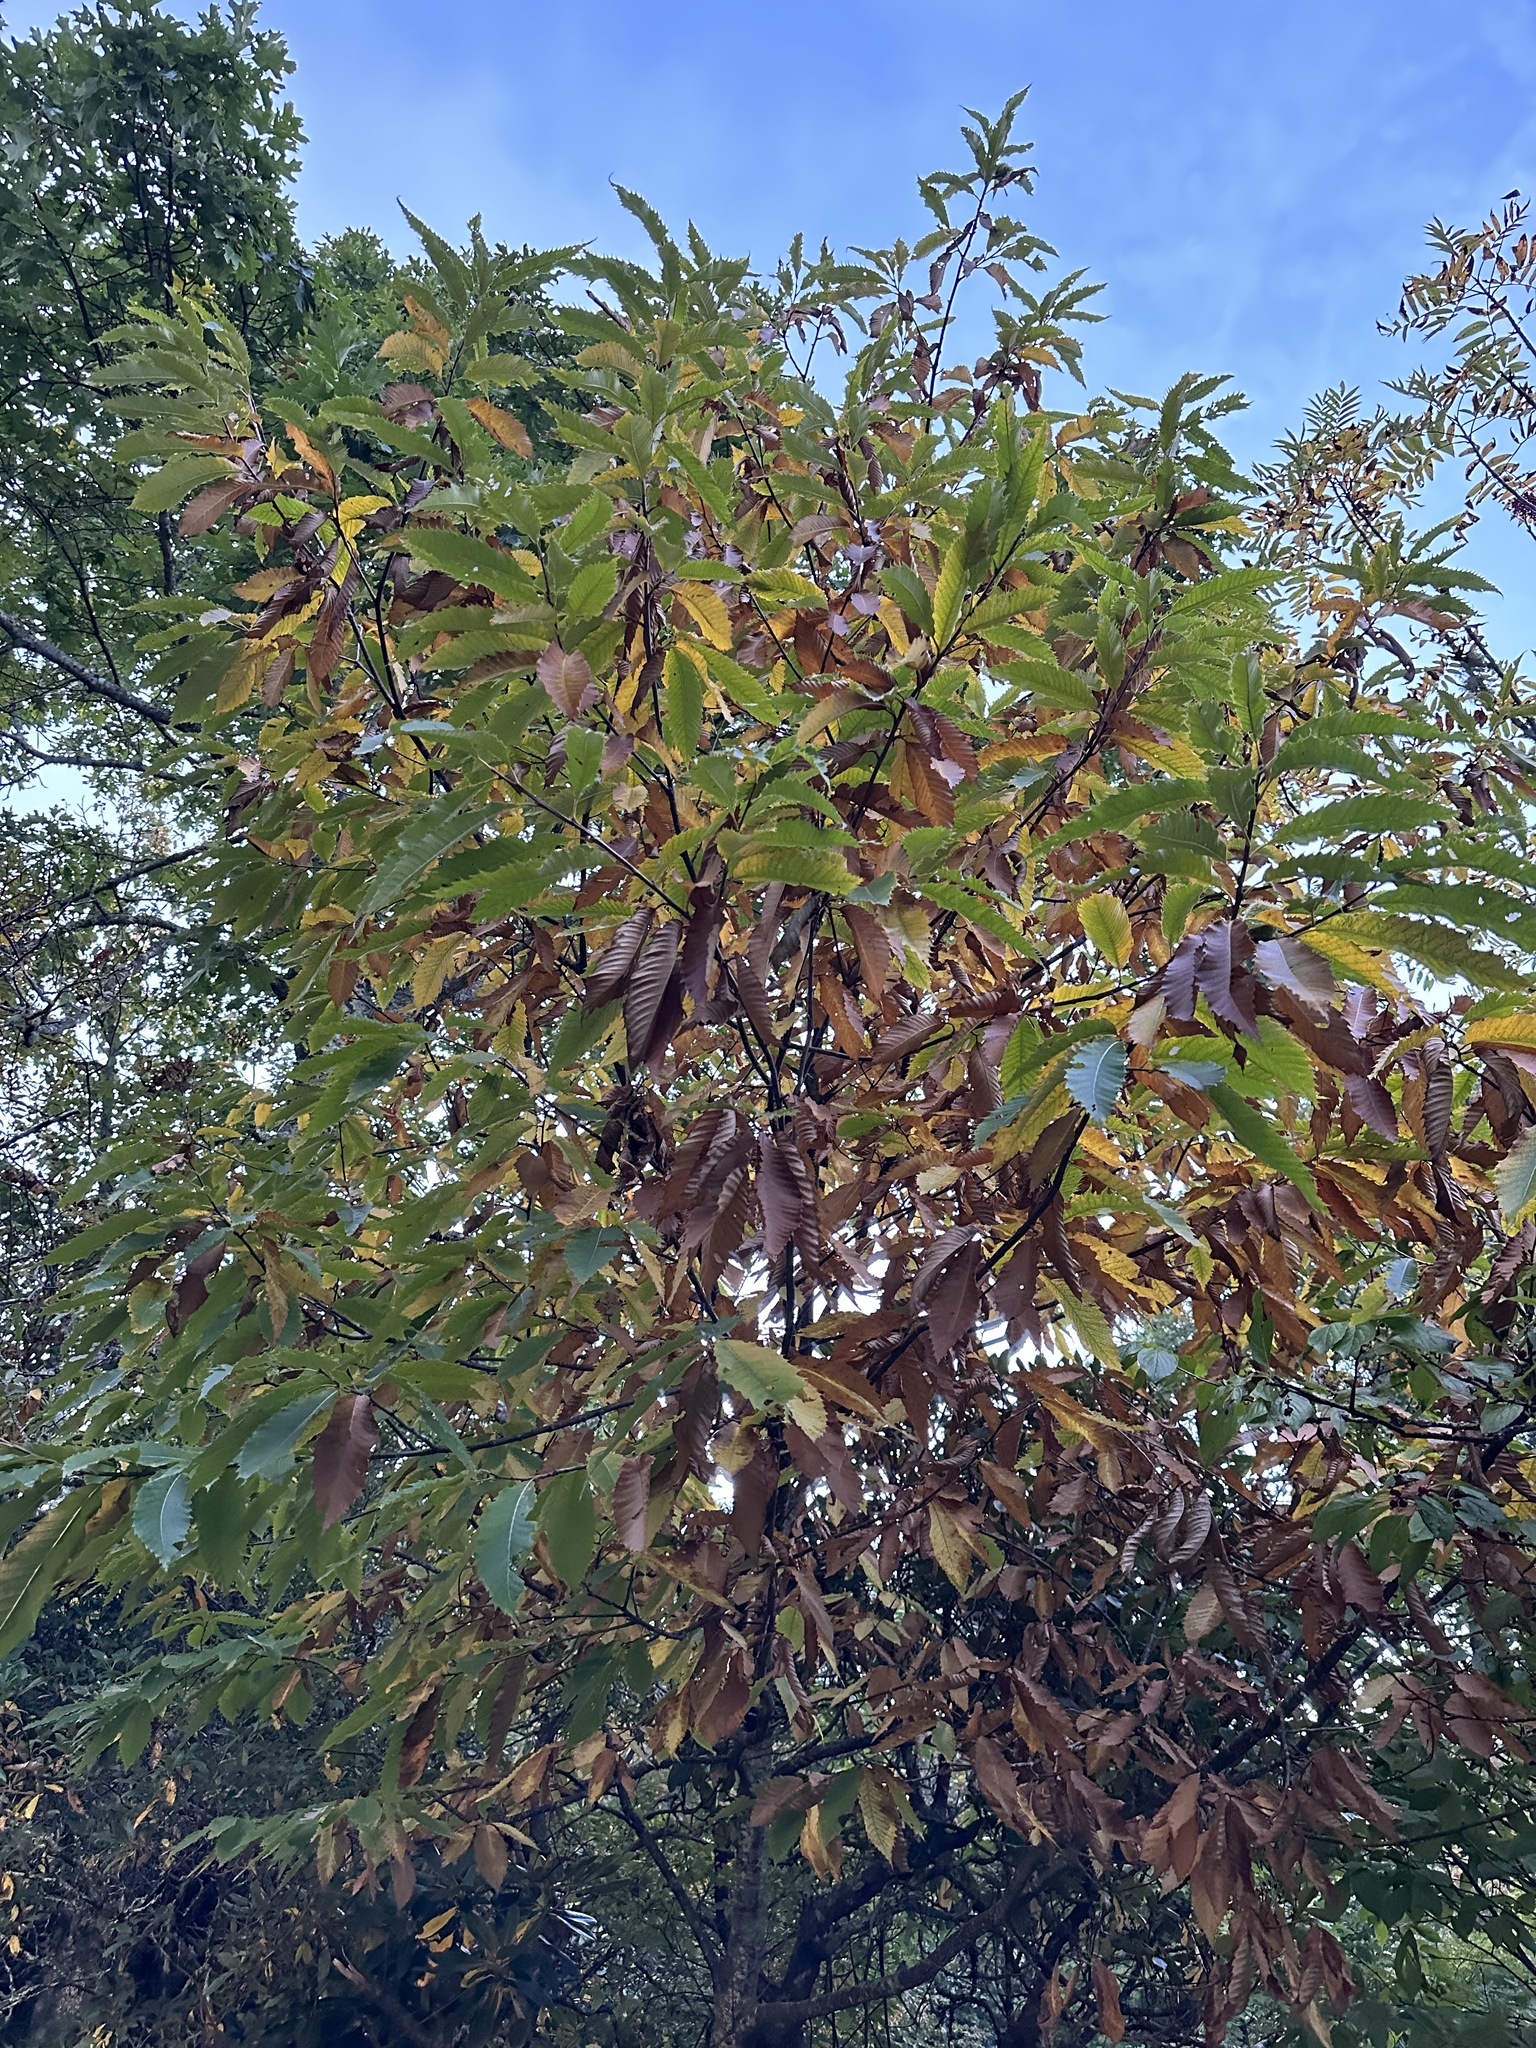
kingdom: Plantae
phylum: Tracheophyta
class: Magnoliopsida
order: Fagales
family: Fagaceae
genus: Castanea
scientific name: Castanea dentata
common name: American chestnut
